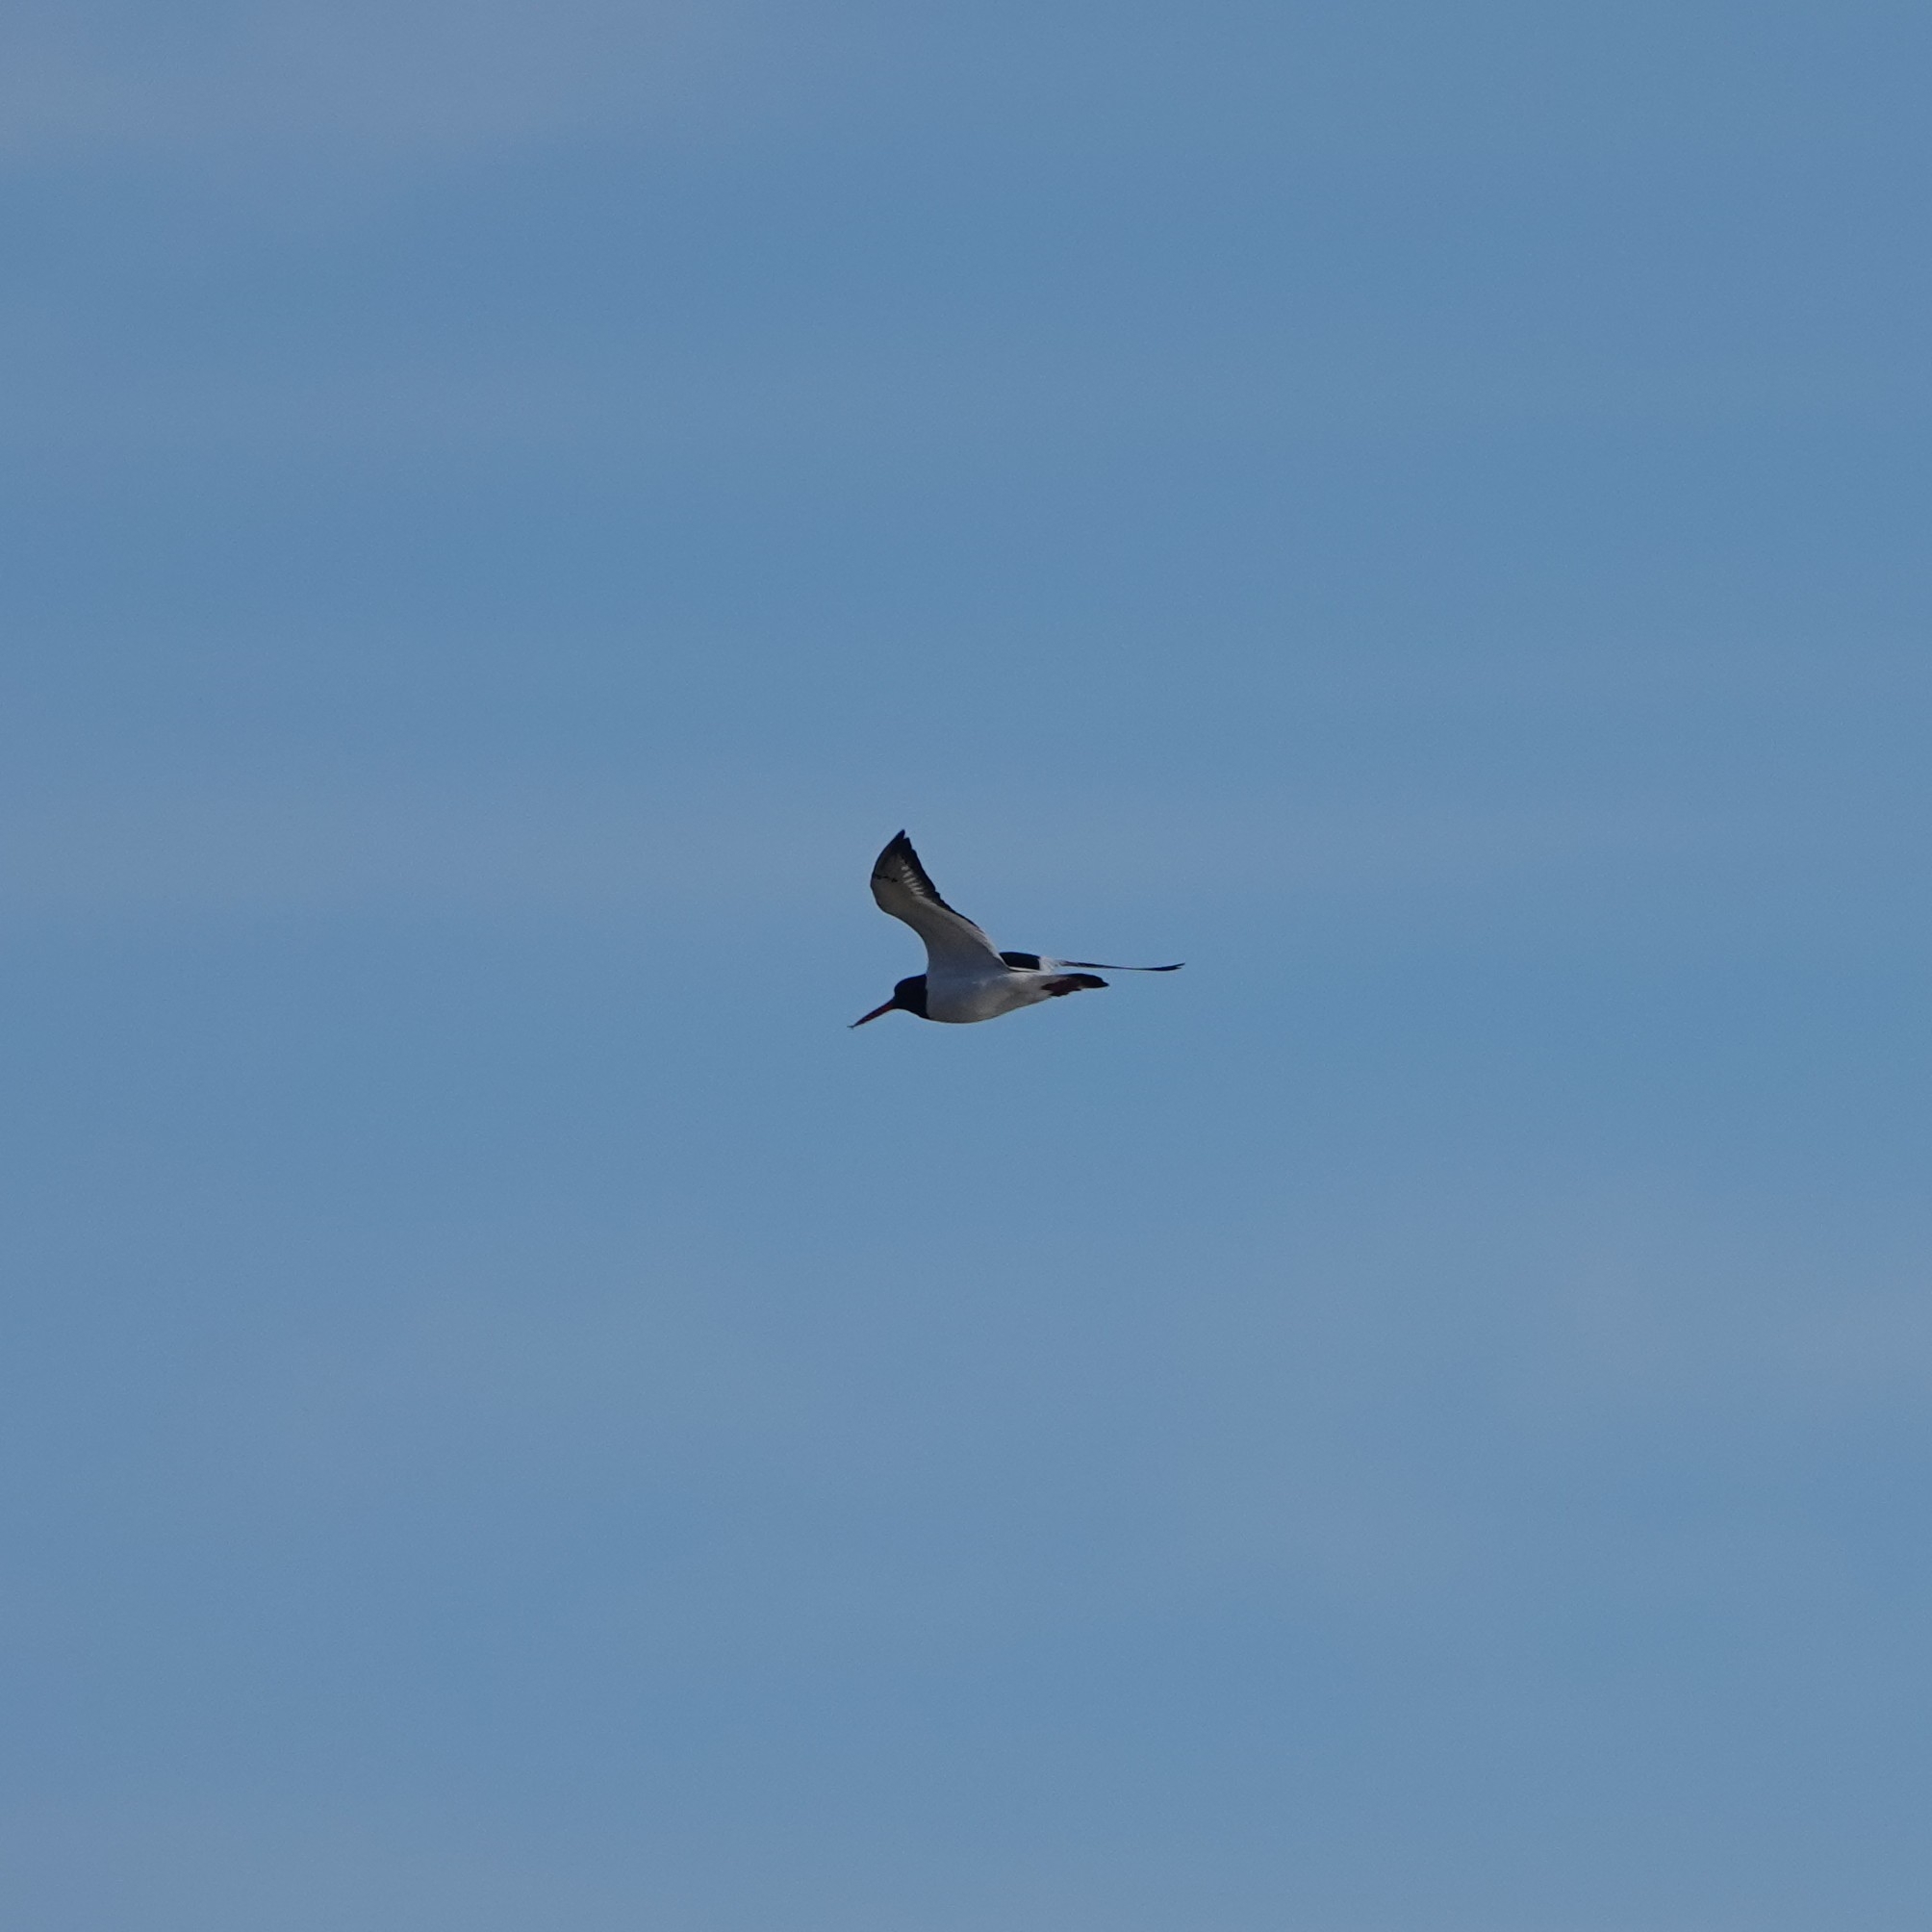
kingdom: Animalia
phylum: Chordata
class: Aves
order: Charadriiformes
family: Haematopodidae
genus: Haematopus
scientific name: Haematopus ostralegus
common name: Eurasian oystercatcher
